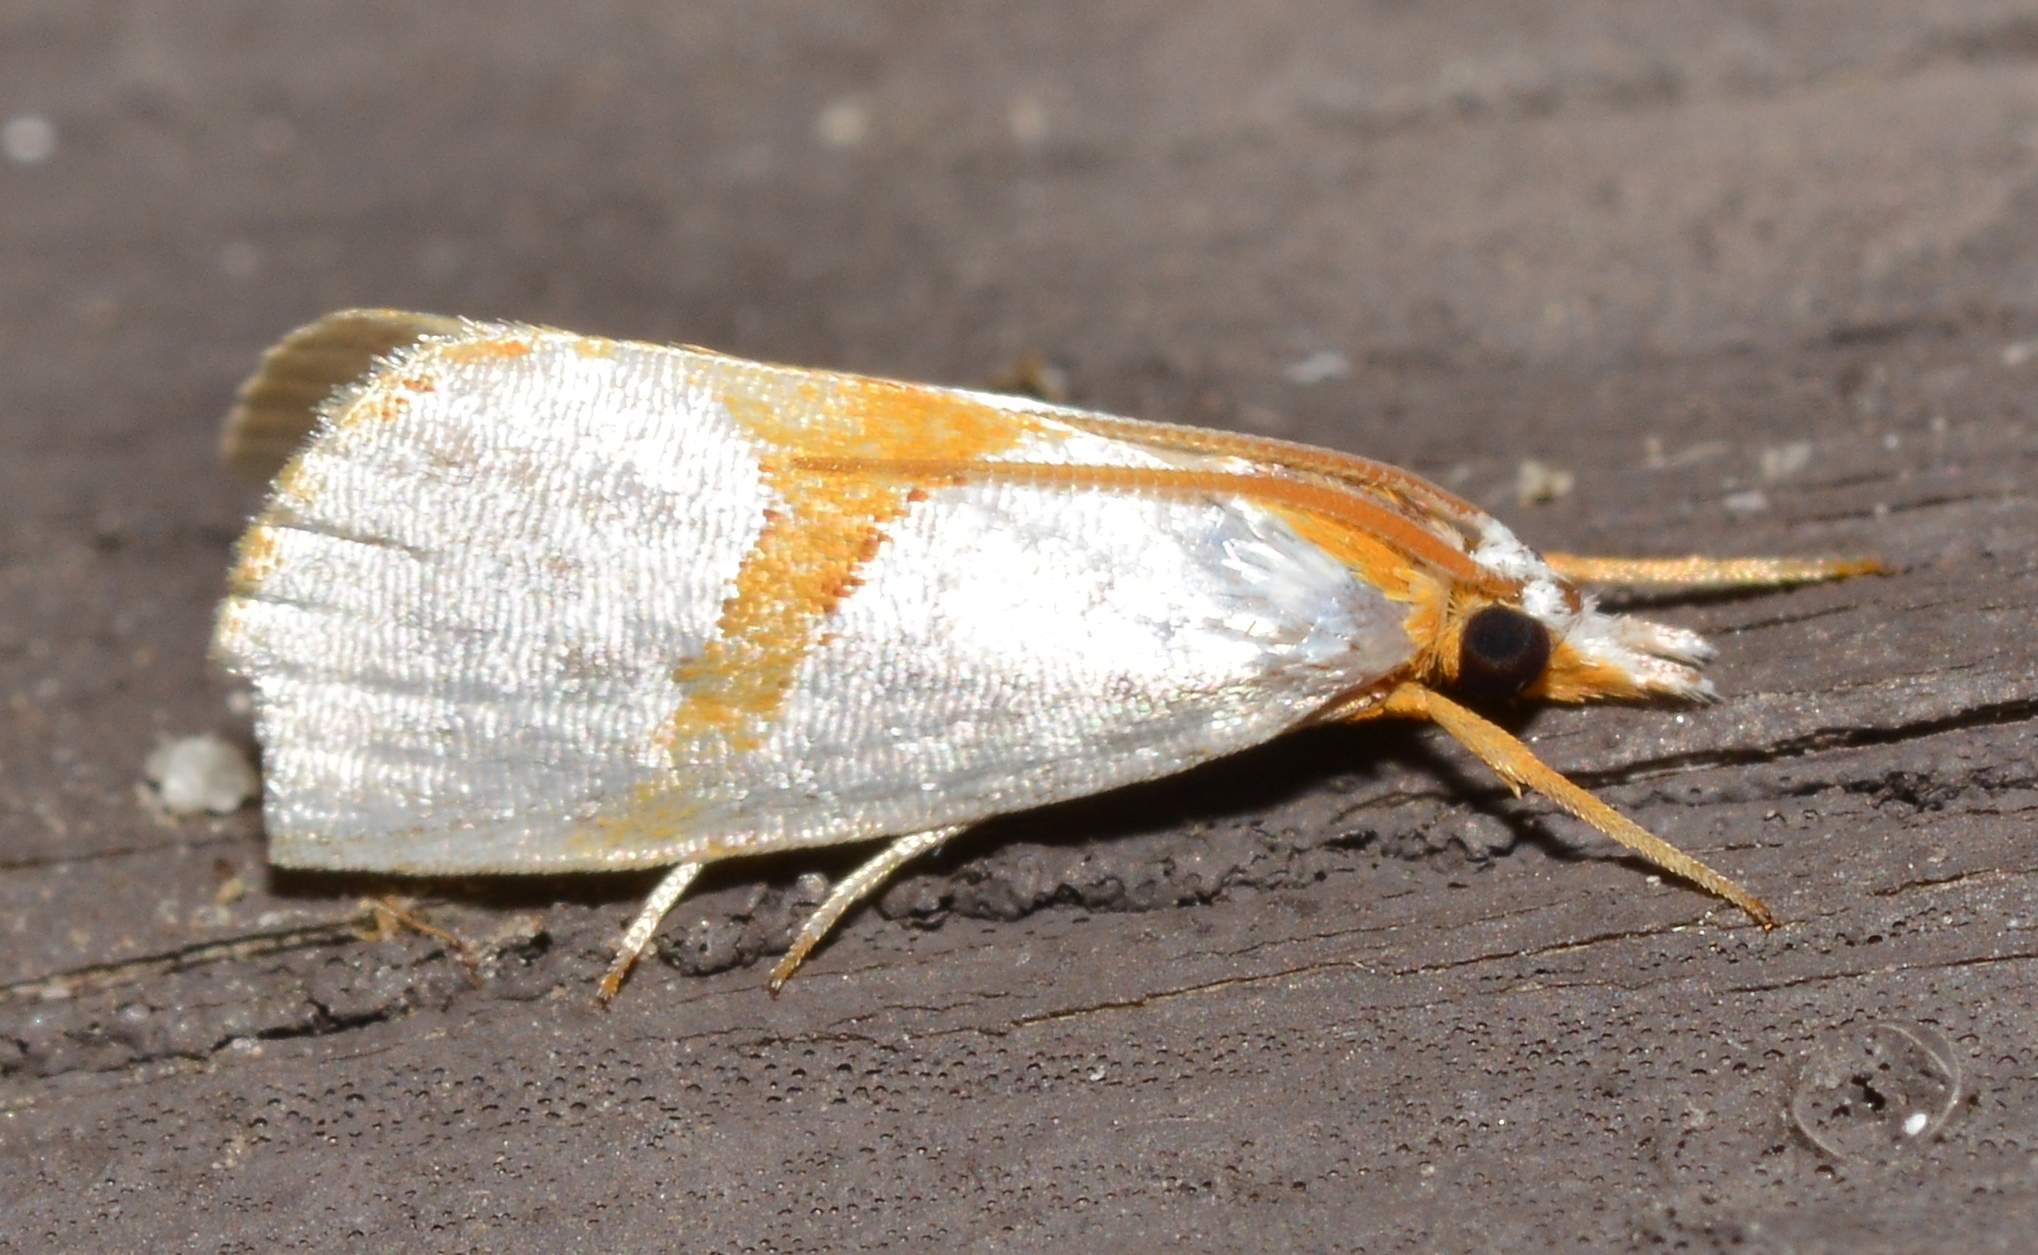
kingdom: Animalia
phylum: Arthropoda
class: Insecta
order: Lepidoptera
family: Crambidae
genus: Argyria
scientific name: Argyria auratella
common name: Curve-lined argyria moth
